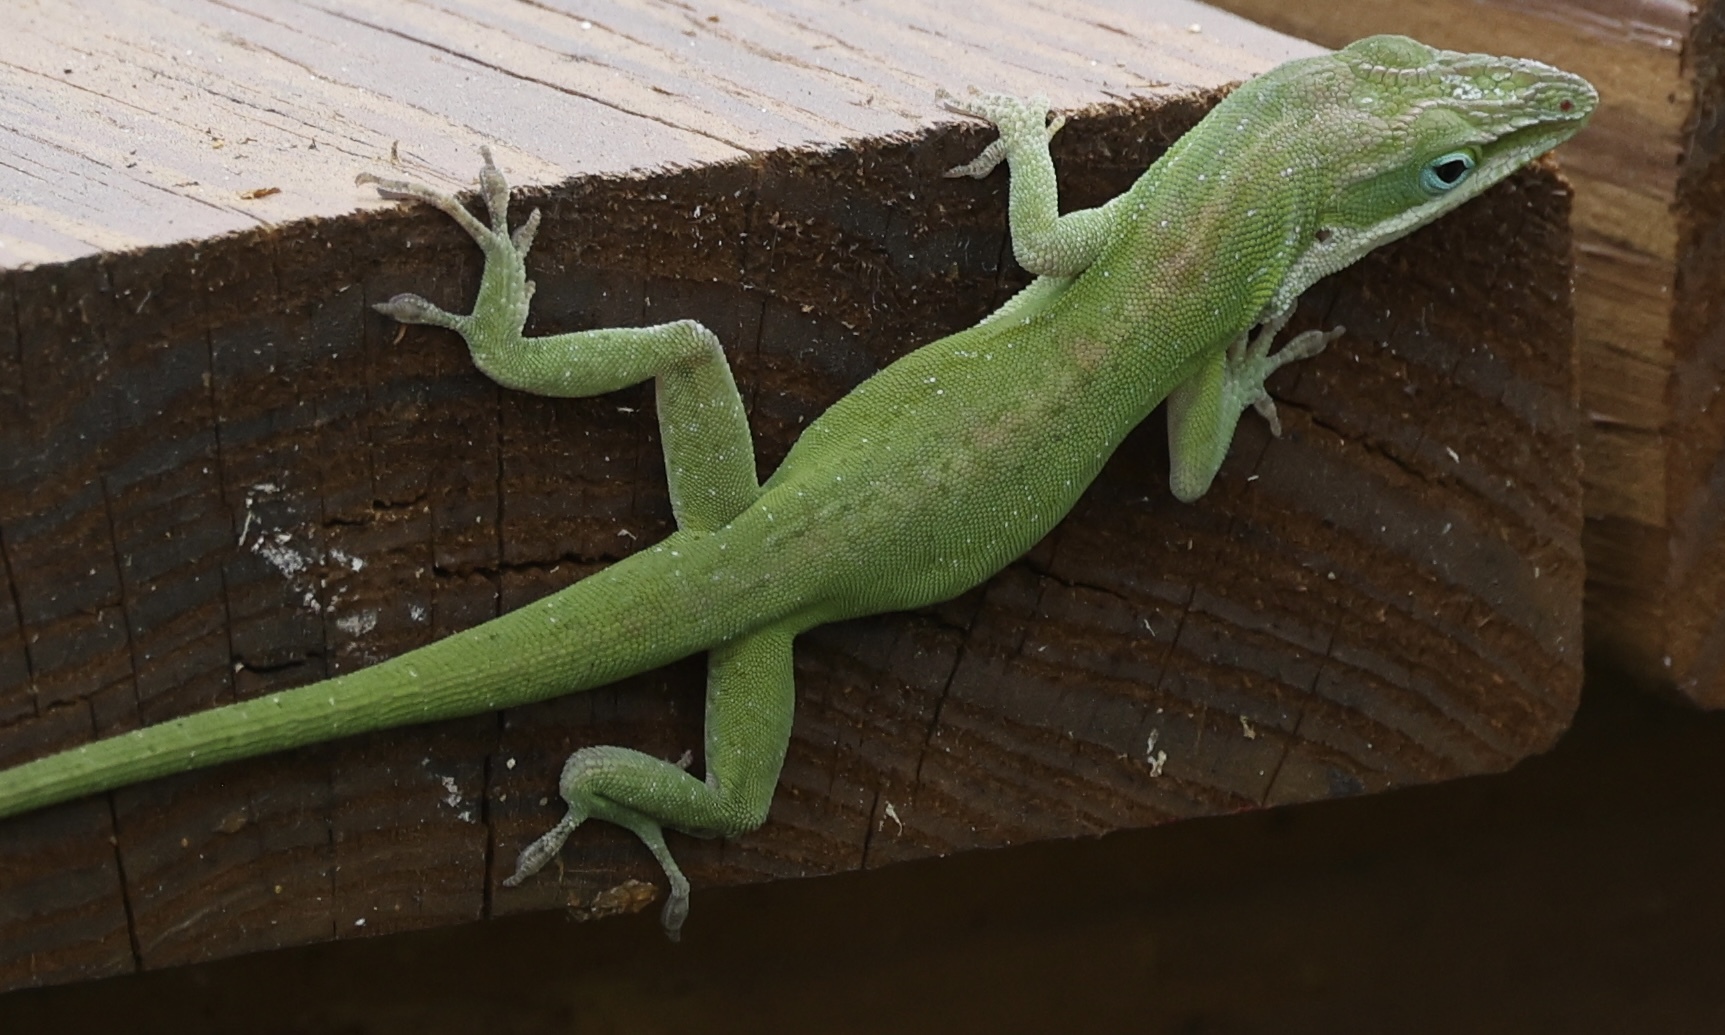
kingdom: Animalia
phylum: Chordata
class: Squamata
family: Dactyloidae
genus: Anolis
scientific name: Anolis carolinensis
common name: Green anole
